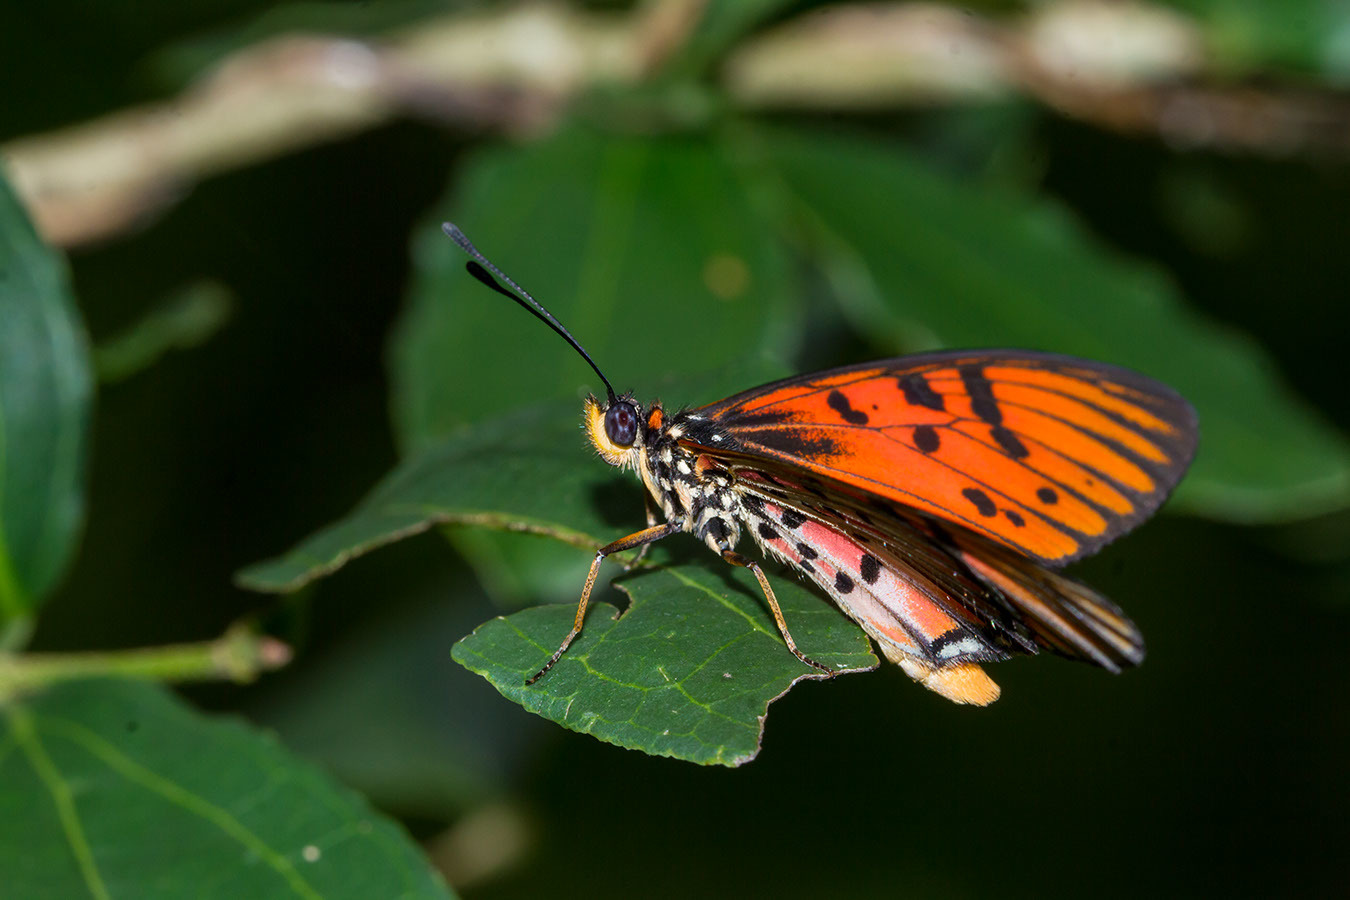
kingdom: Animalia
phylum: Arthropoda
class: Insecta
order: Lepidoptera
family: Nymphalidae
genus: Rubraea
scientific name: Rubraea
